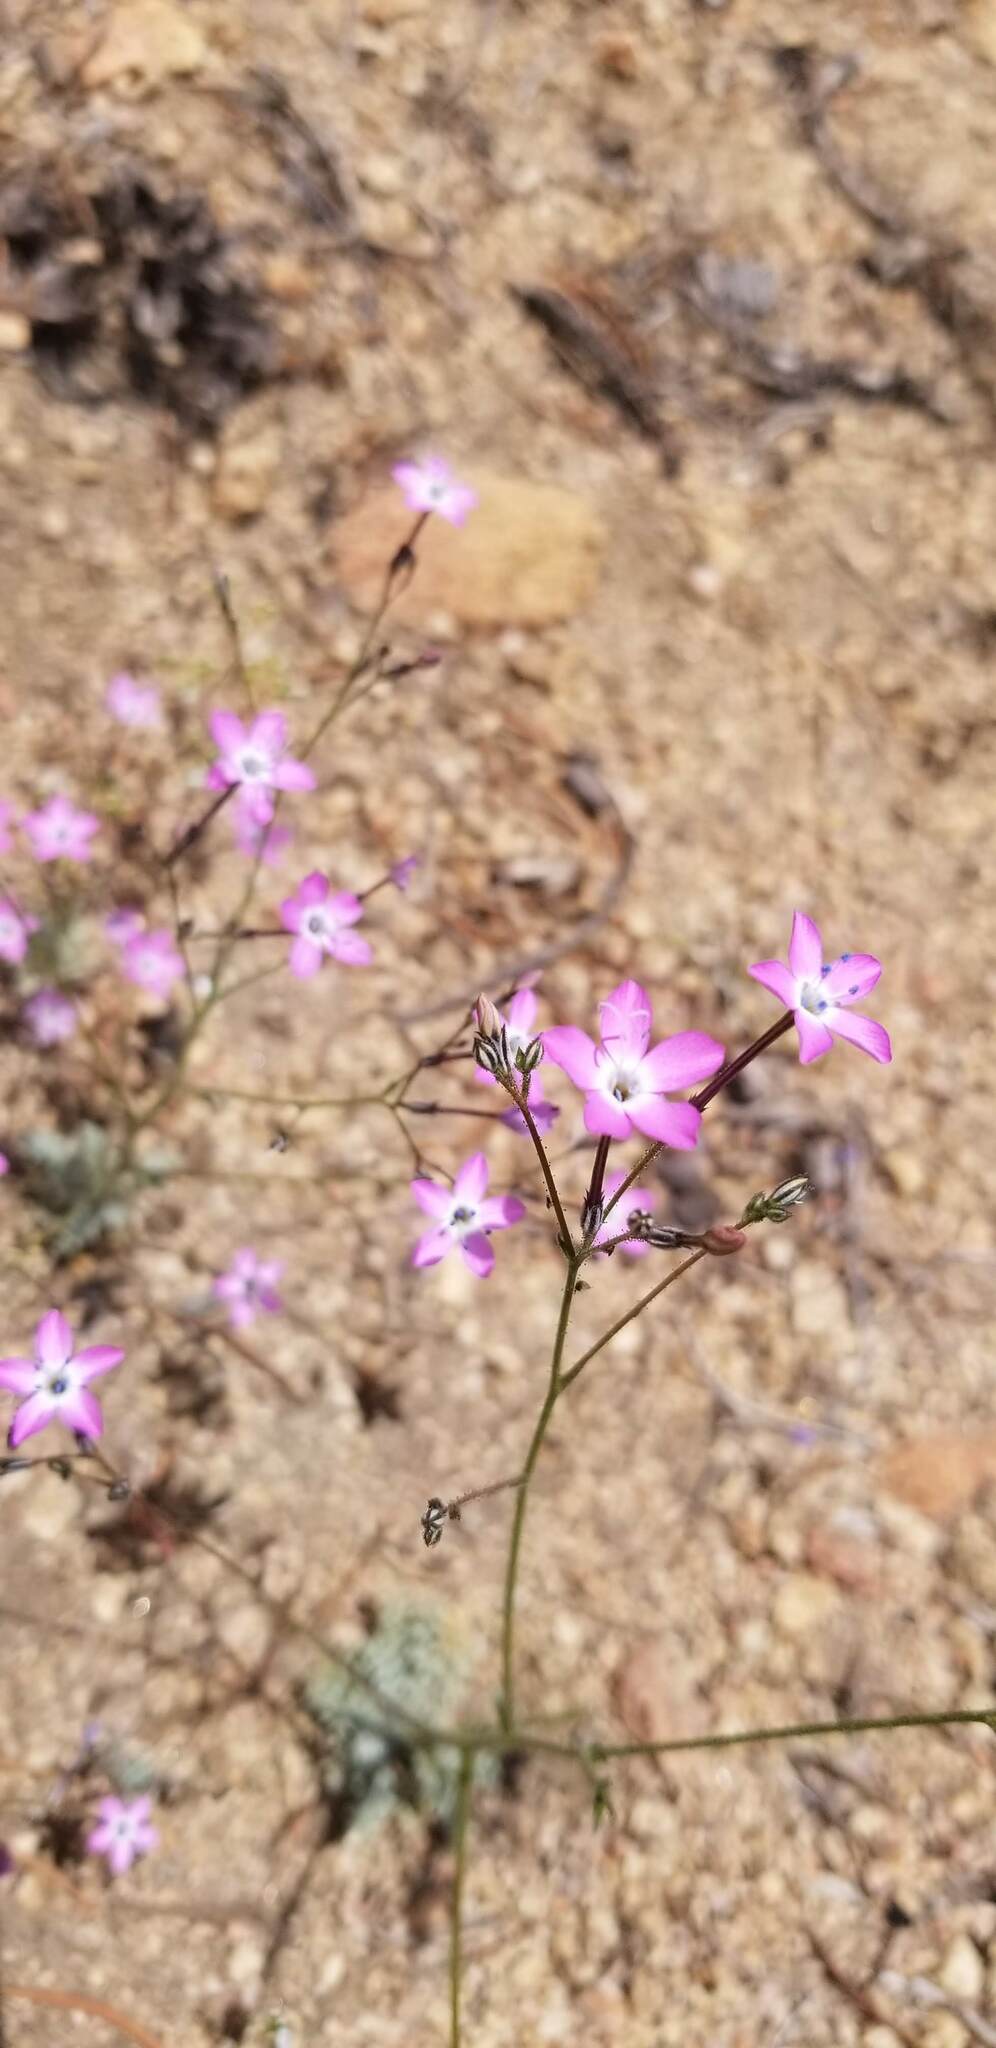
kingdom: Plantae
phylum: Tracheophyta
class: Magnoliopsida
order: Ericales
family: Polemoniaceae
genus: Gilia
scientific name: Gilia leptantha
